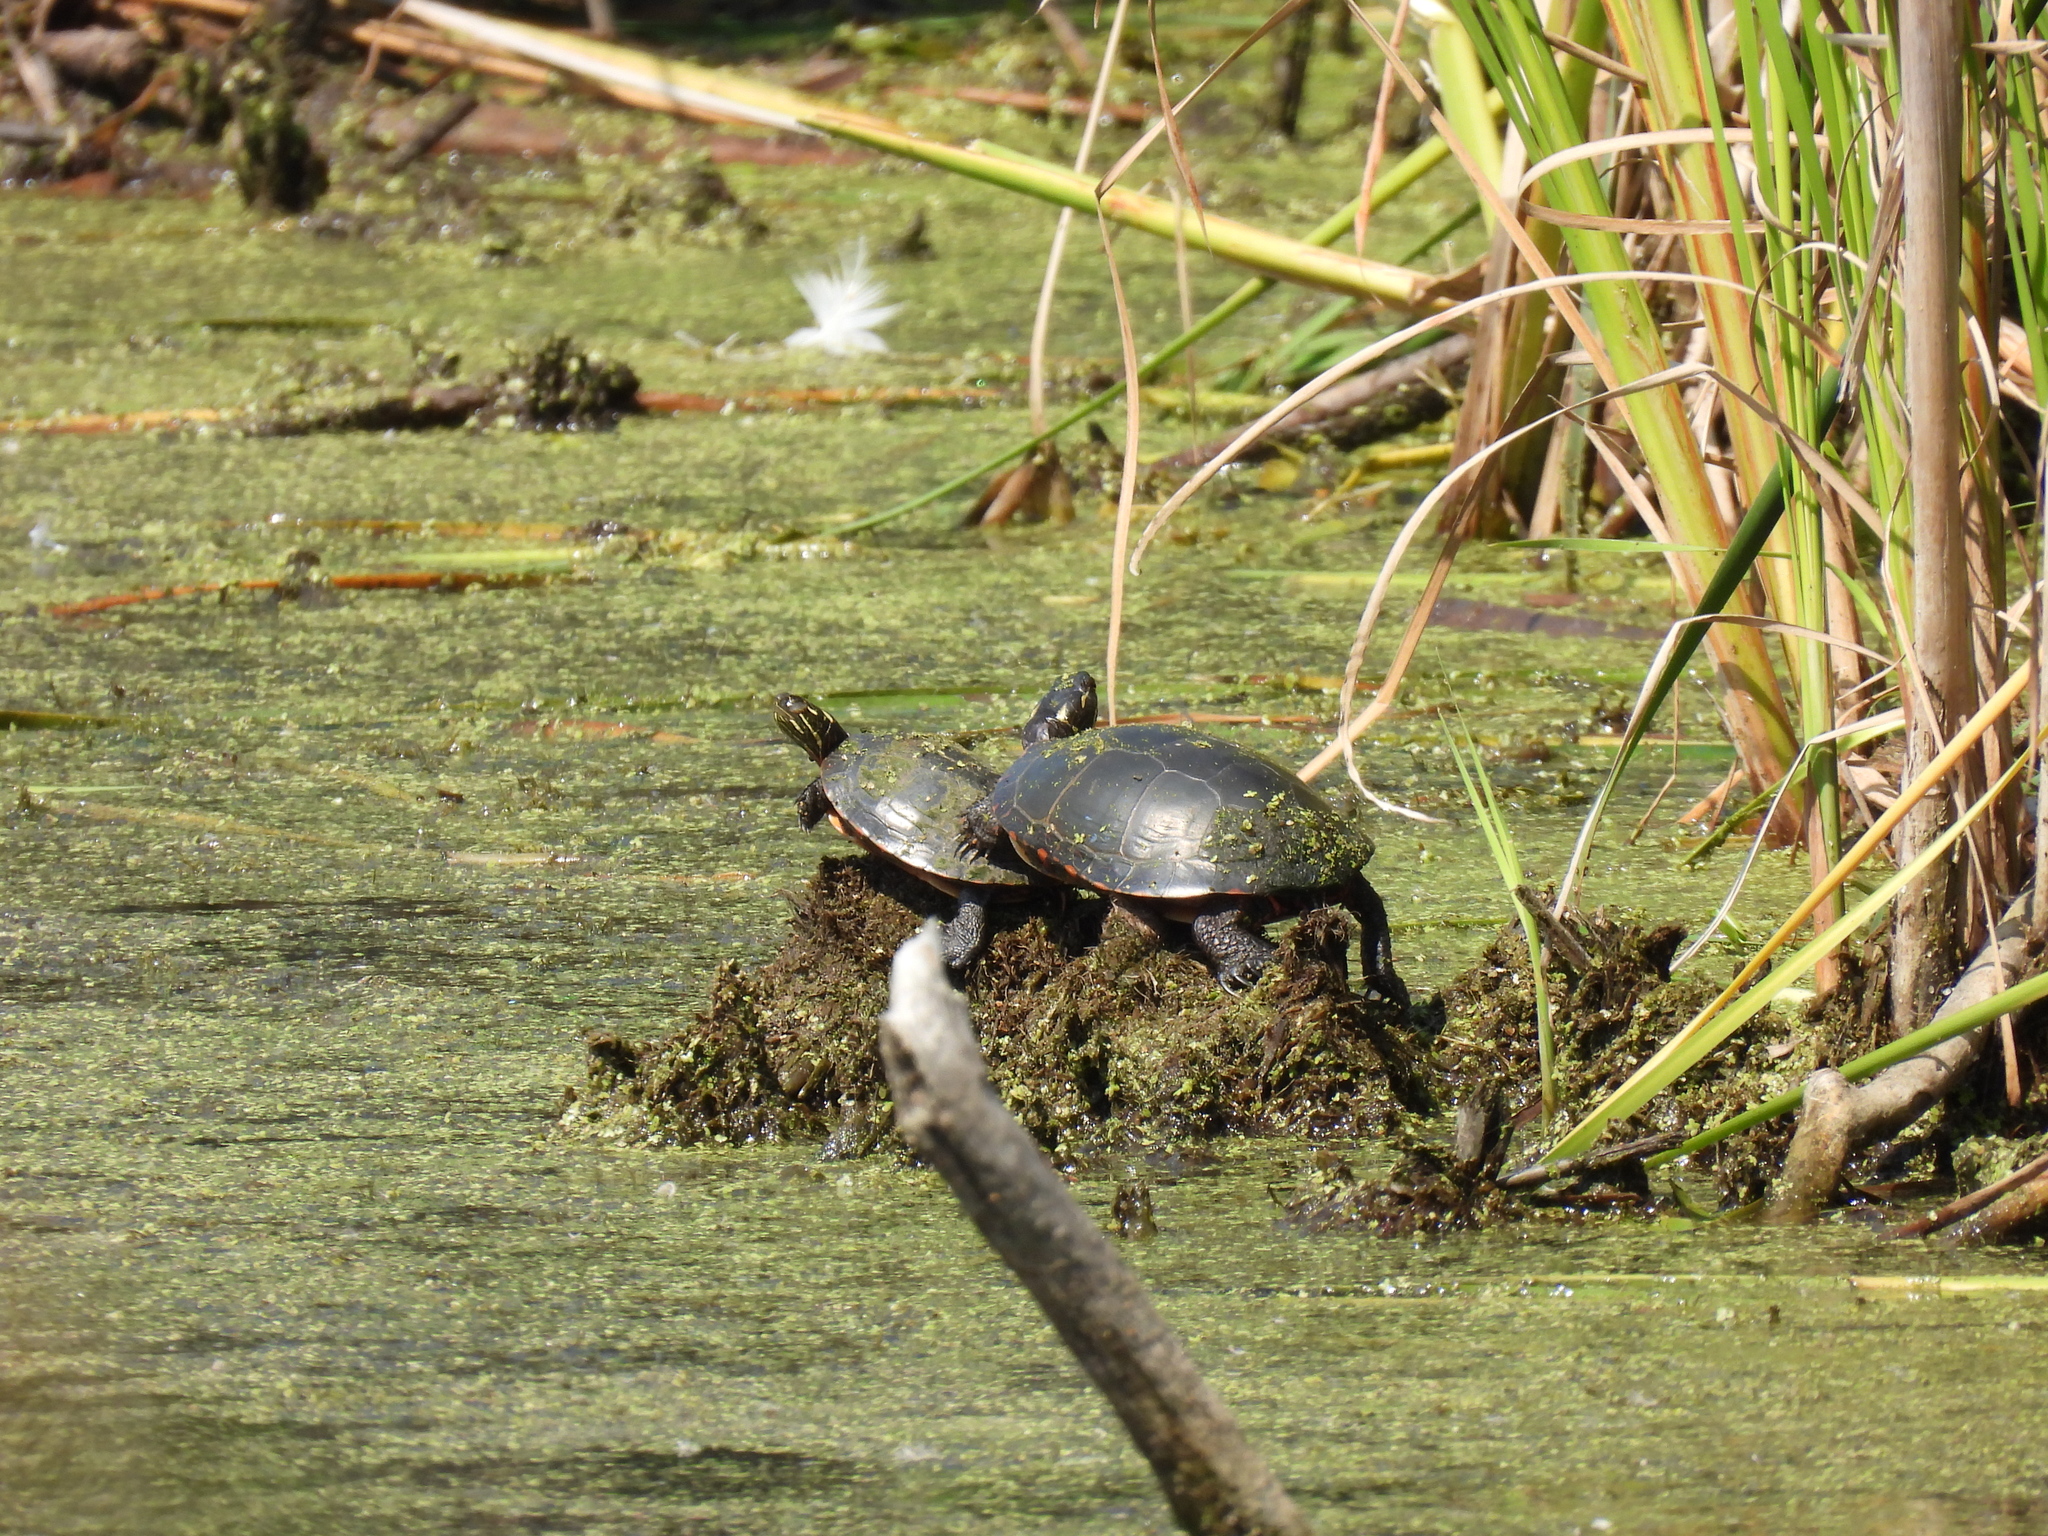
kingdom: Animalia
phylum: Chordata
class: Testudines
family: Emydidae
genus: Chrysemys
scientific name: Chrysemys picta
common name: Painted turtle
